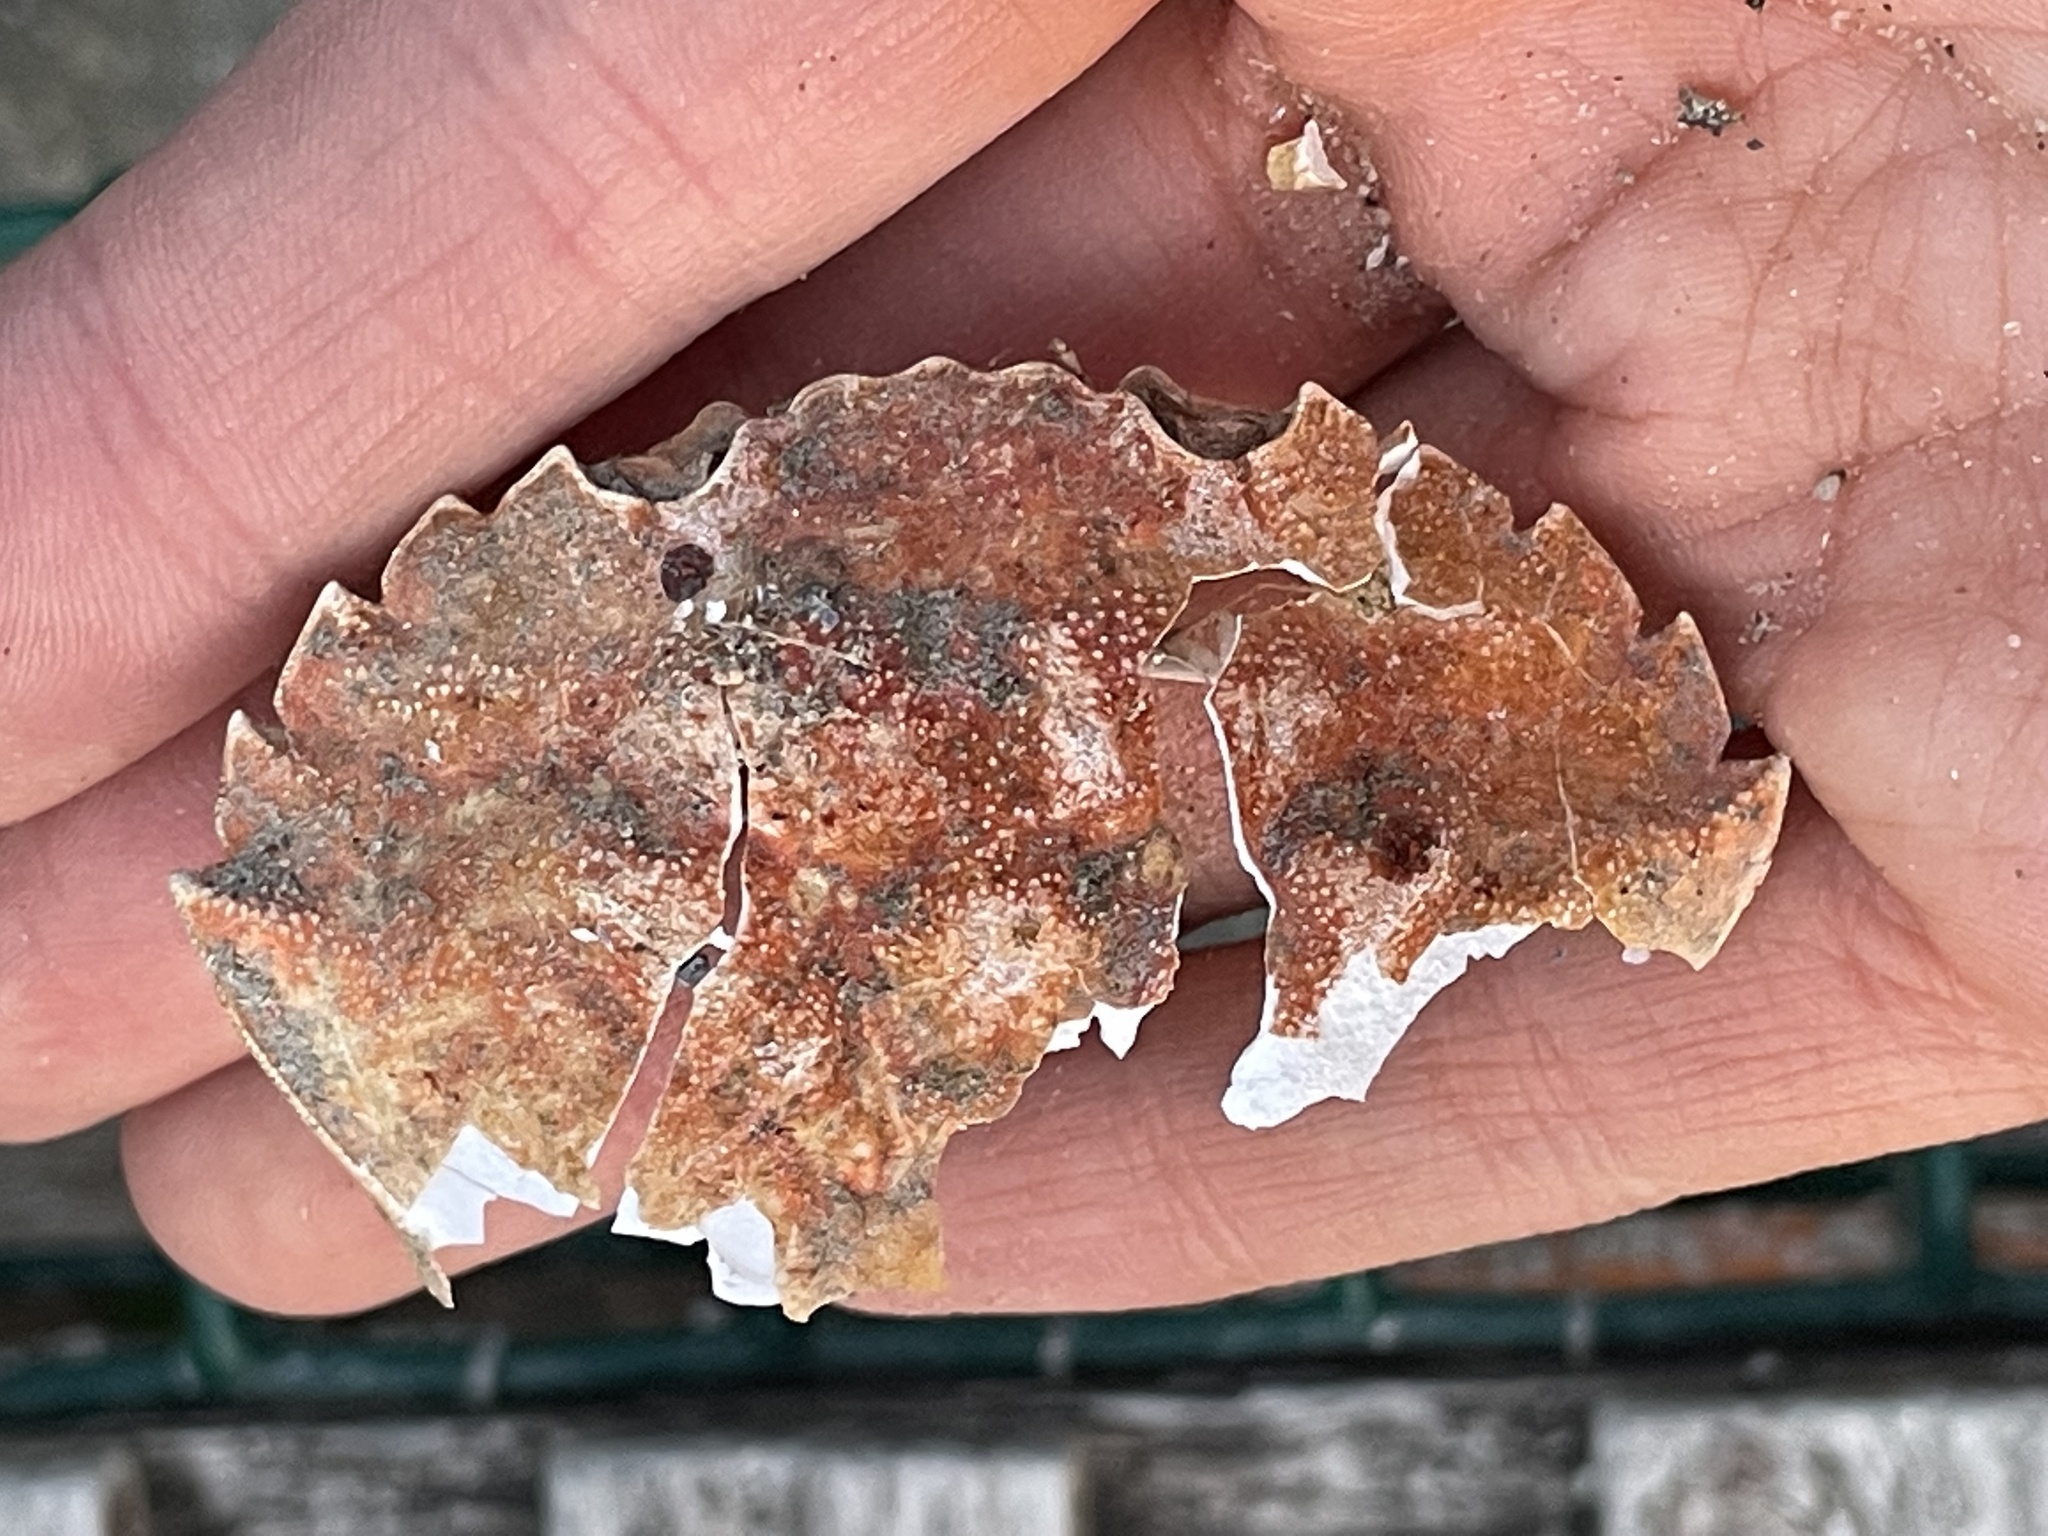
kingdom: Animalia
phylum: Arthropoda
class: Malacostraca
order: Decapoda
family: Carcinidae
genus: Carcinus
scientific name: Carcinus maenas
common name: European green crab
